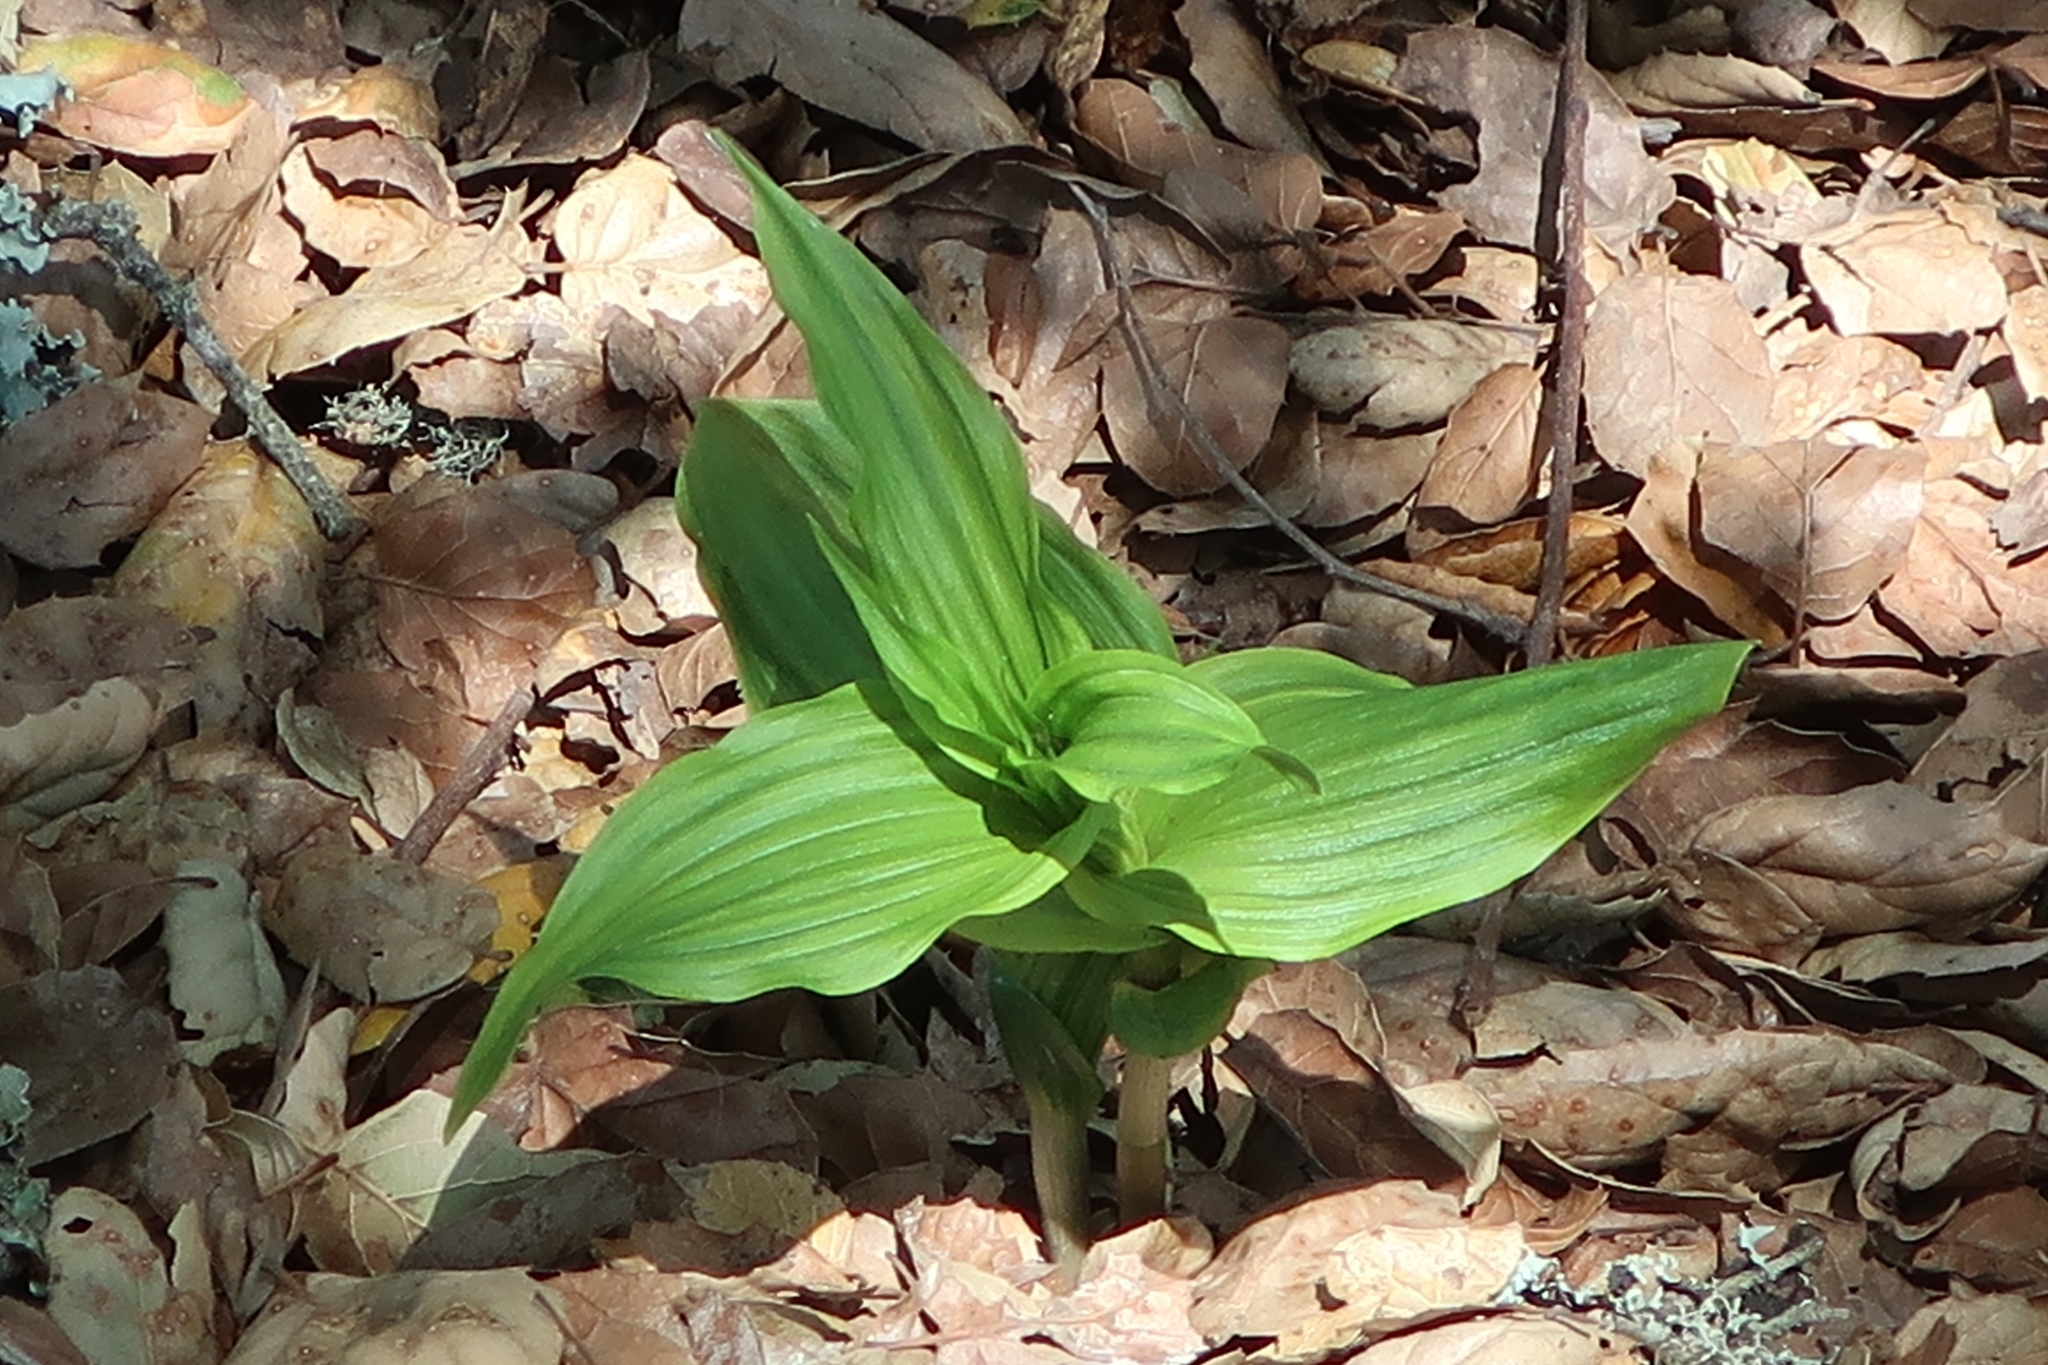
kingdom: Plantae
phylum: Tracheophyta
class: Liliopsida
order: Asparagales
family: Orchidaceae
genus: Epipactis
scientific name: Epipactis helleborine
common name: Broad-leaved helleborine
